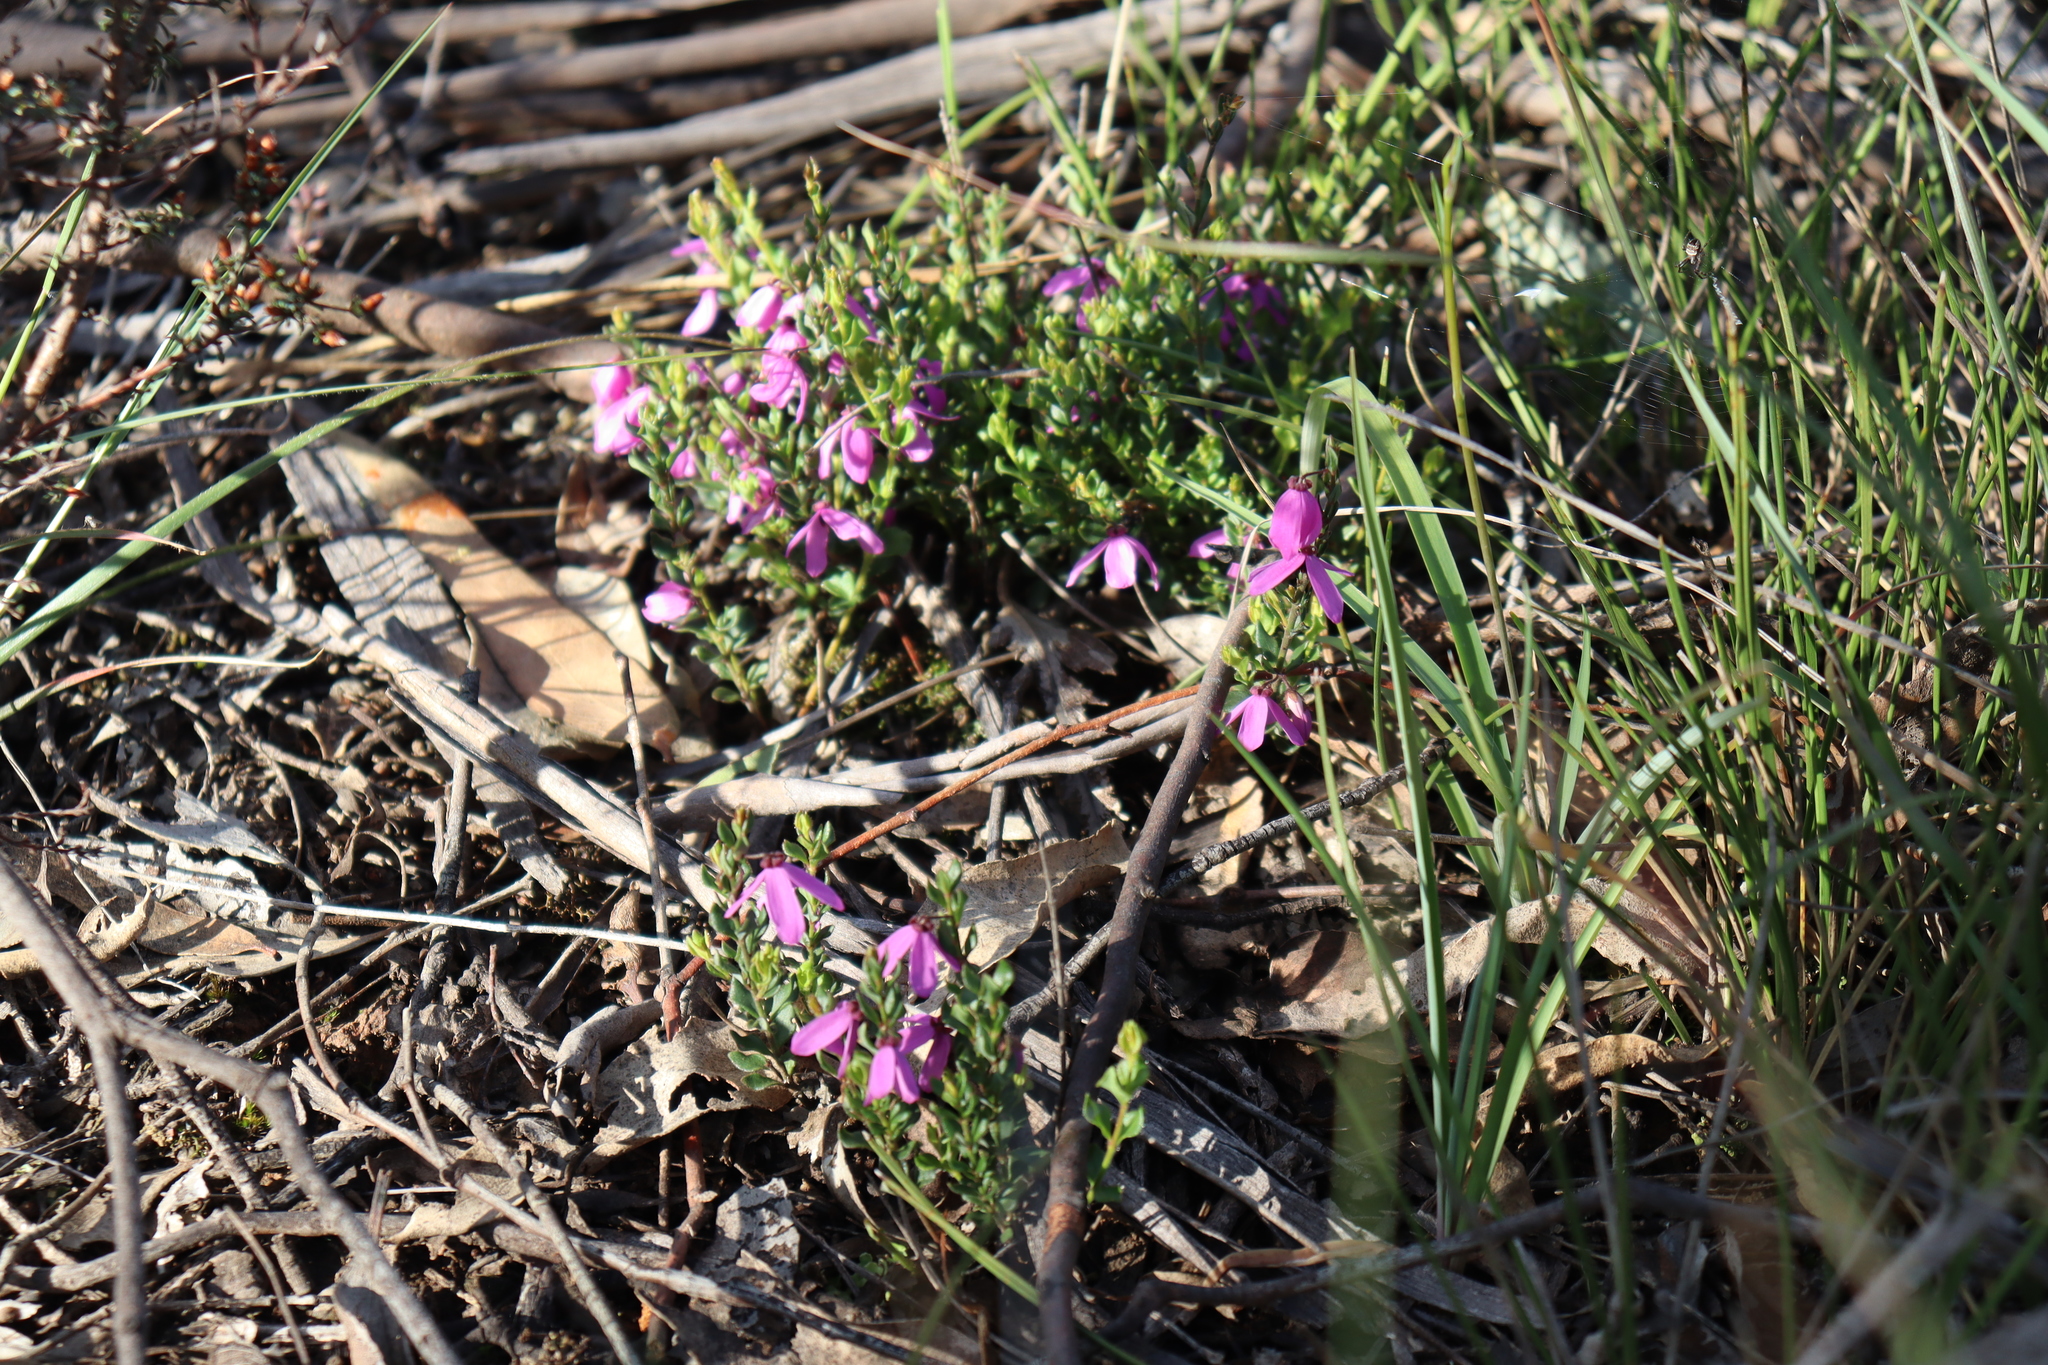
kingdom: Plantae
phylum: Tracheophyta
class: Magnoliopsida
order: Oxalidales
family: Elaeocarpaceae
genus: Tetratheca
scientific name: Tetratheca ciliata
